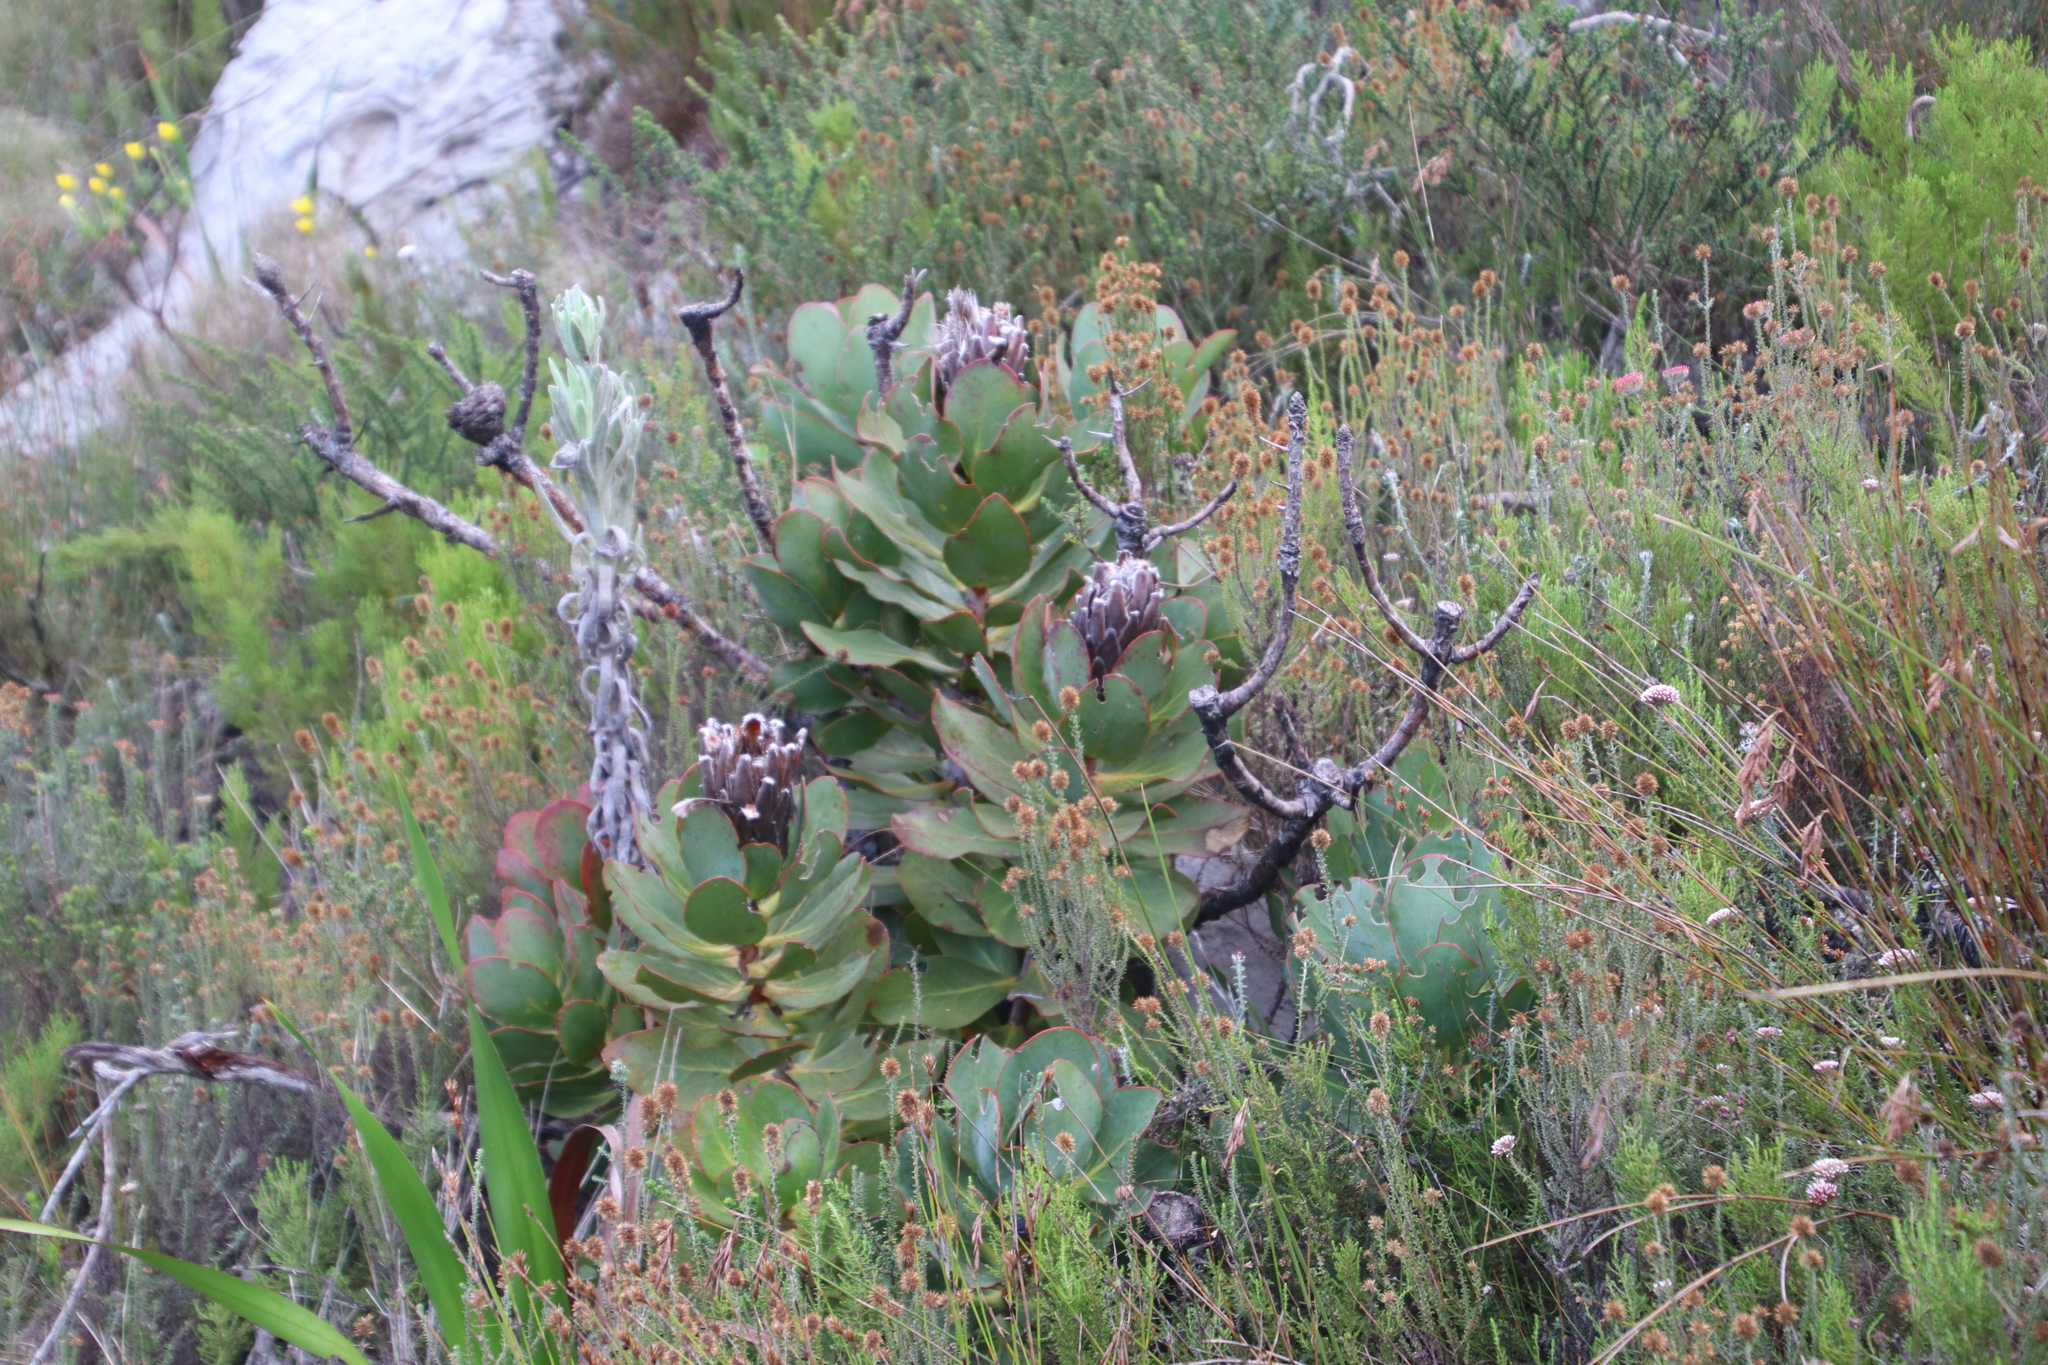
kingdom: Plantae
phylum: Tracheophyta
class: Magnoliopsida
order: Proteales
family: Proteaceae
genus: Protea
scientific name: Protea speciosa
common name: Brown-beard sugarbush
